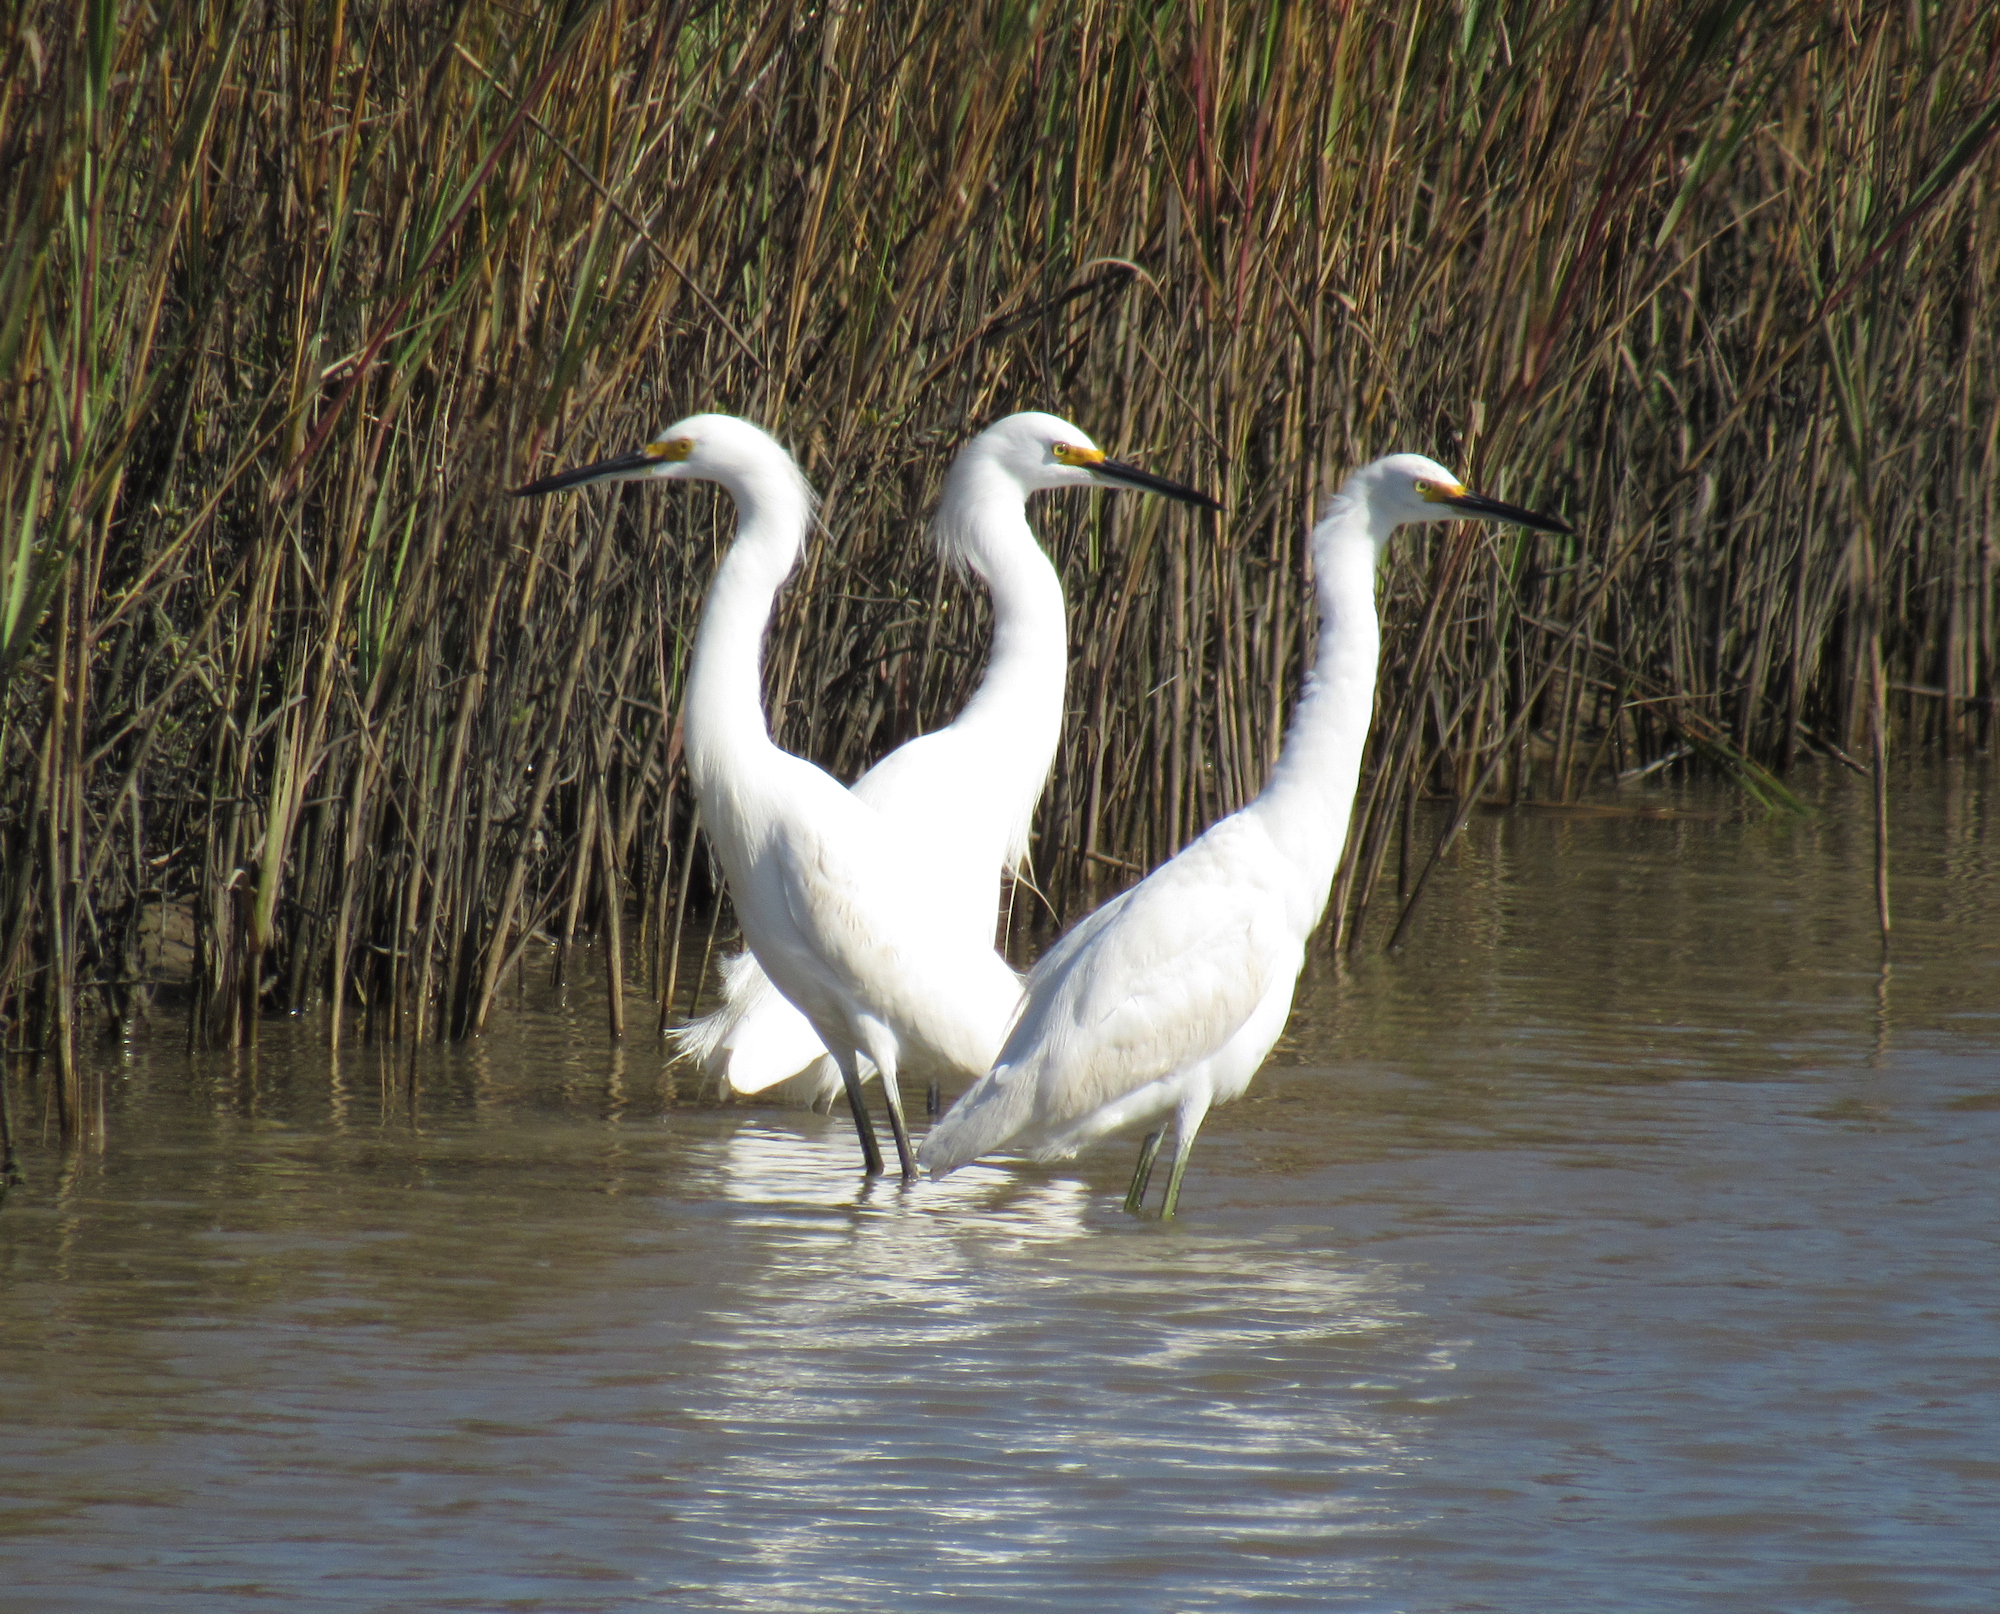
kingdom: Animalia
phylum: Chordata
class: Aves
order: Pelecaniformes
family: Ardeidae
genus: Egretta
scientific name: Egretta thula
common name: Snowy egret
